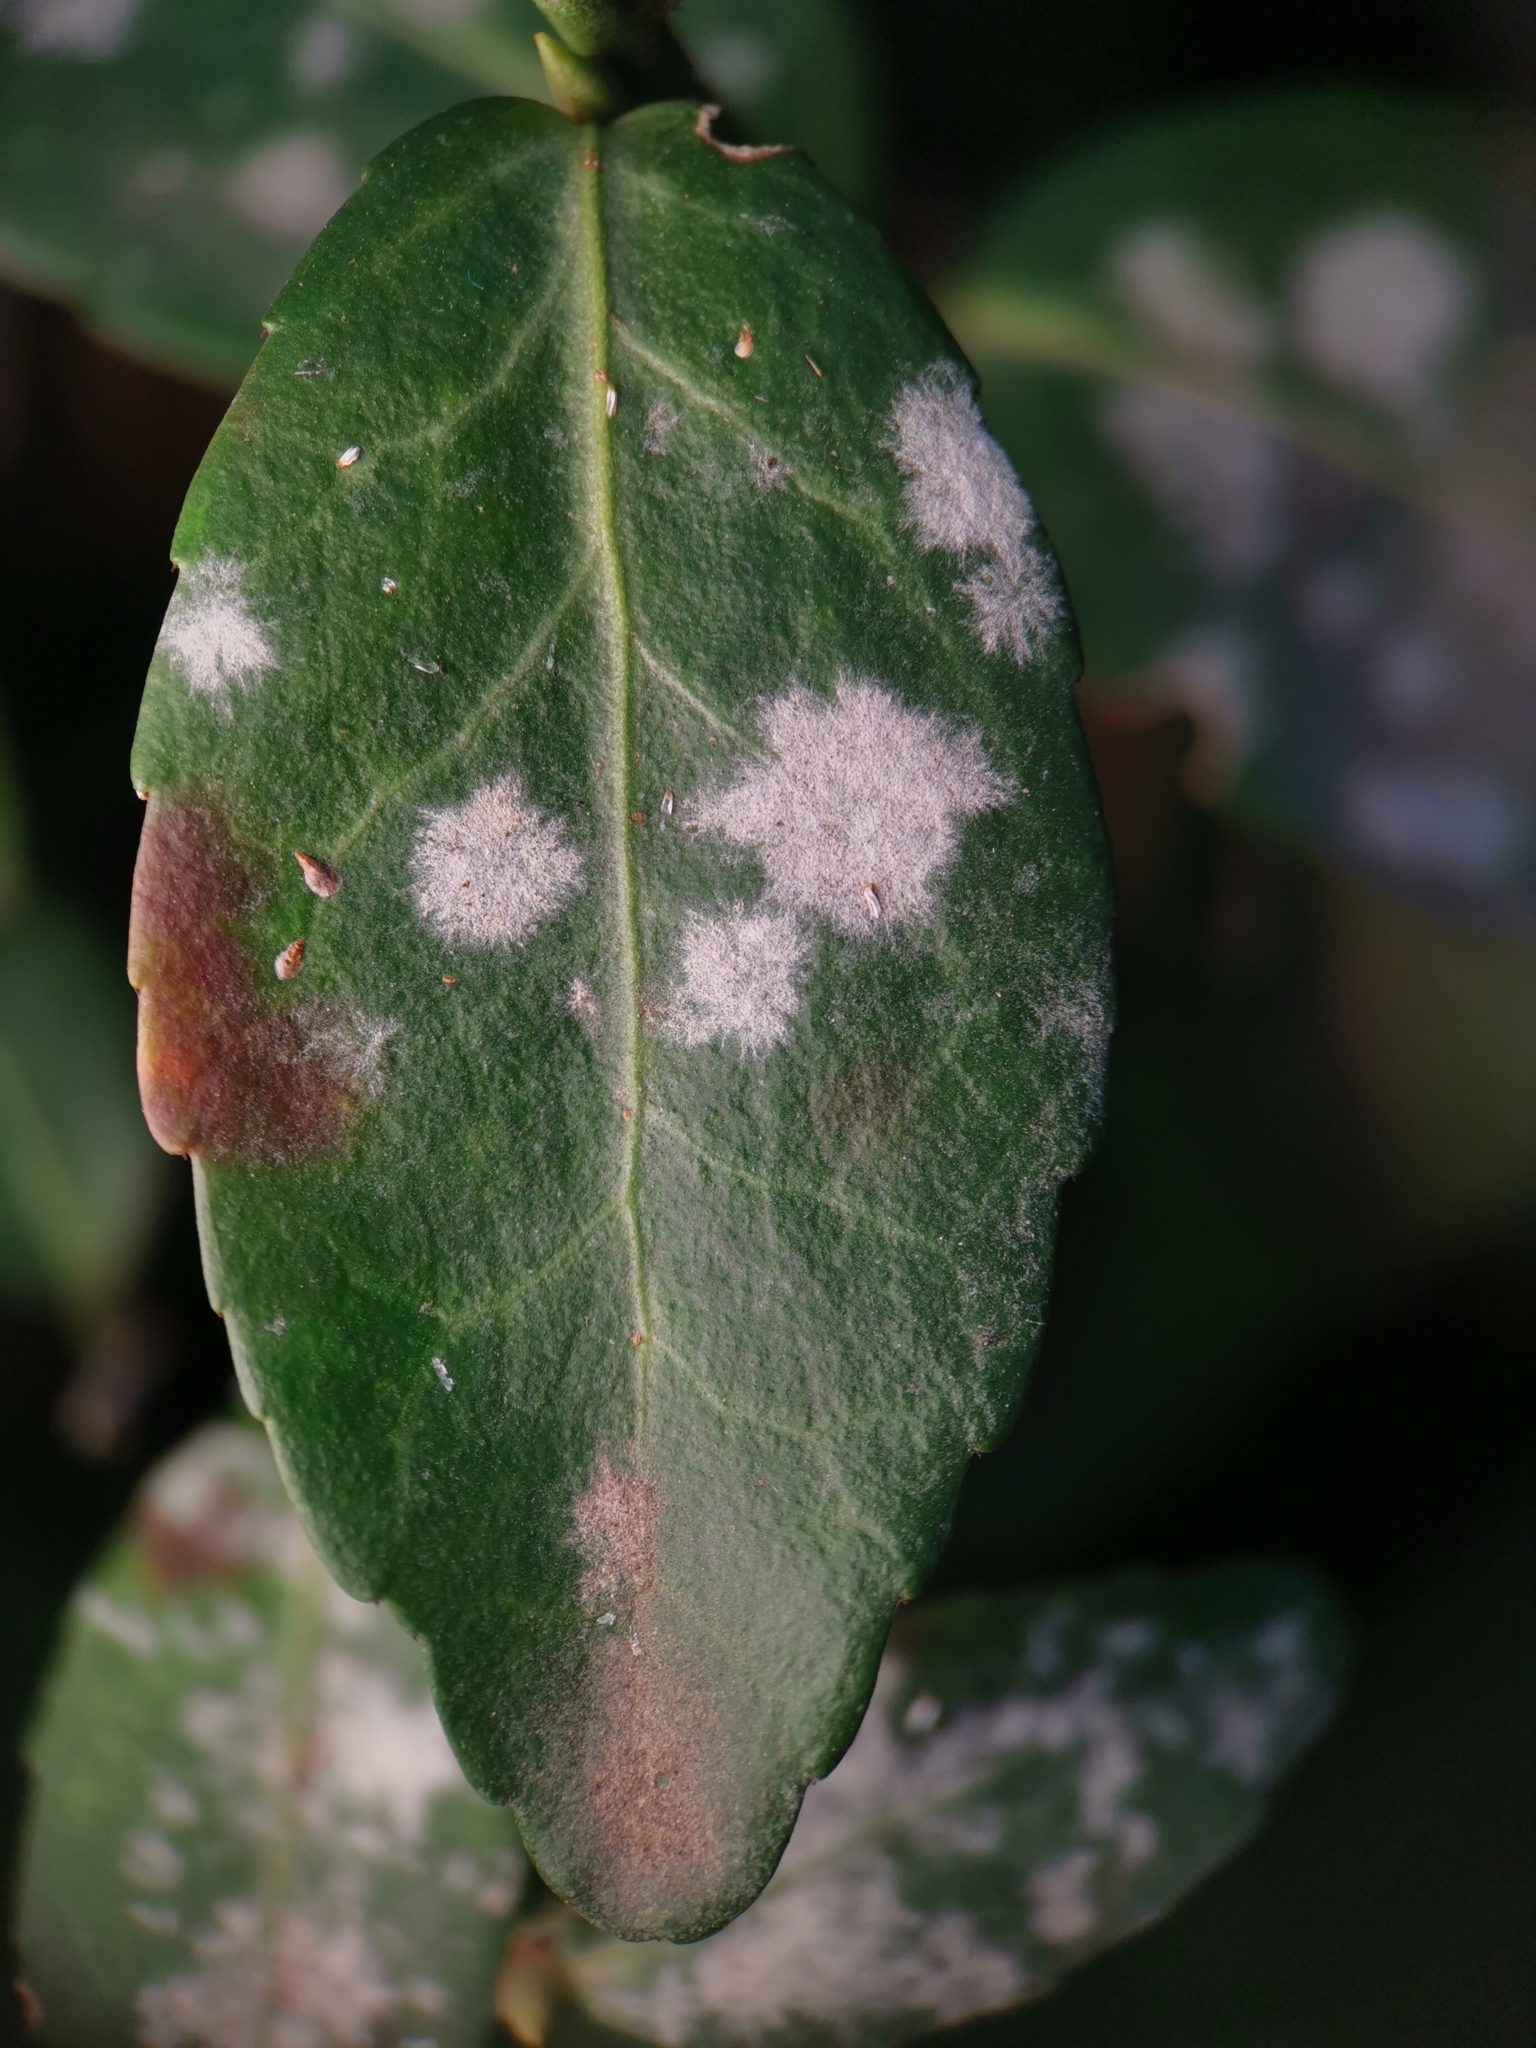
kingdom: Fungi
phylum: Ascomycota
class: Leotiomycetes
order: Helotiales
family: Erysiphaceae
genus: Erysiphe
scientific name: Erysiphe euonymicola
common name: Spindletree mildew
